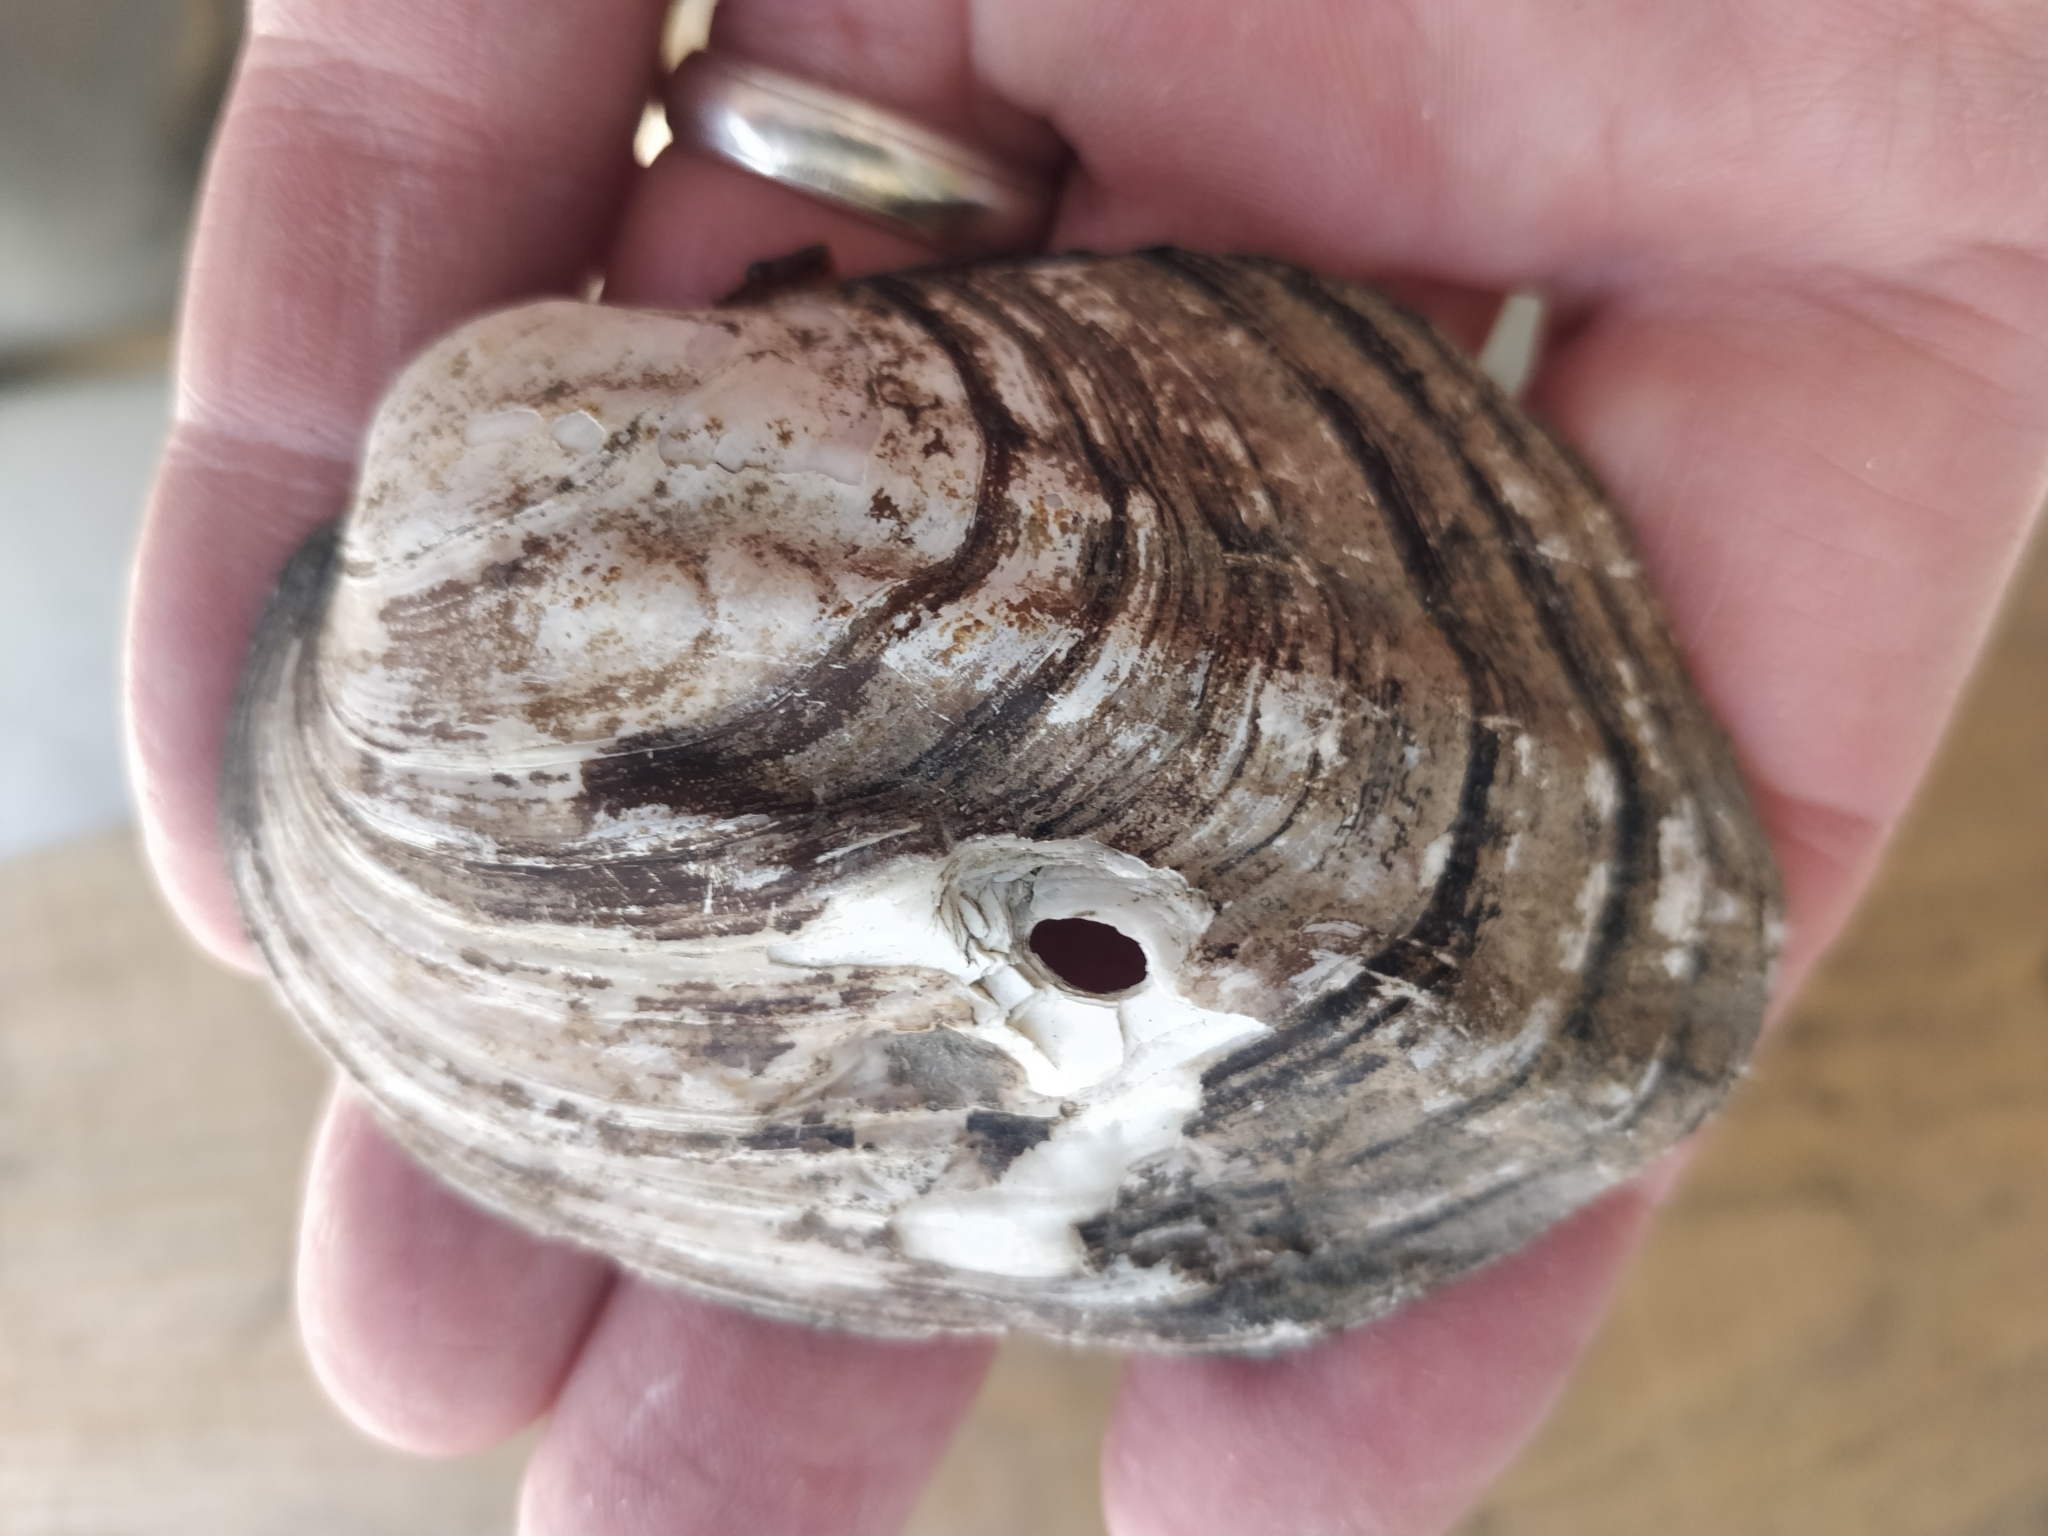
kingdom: Animalia
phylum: Mollusca
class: Bivalvia
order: Unionida
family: Unionidae
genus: Amblema
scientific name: Amblema plicata
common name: Threeridge
